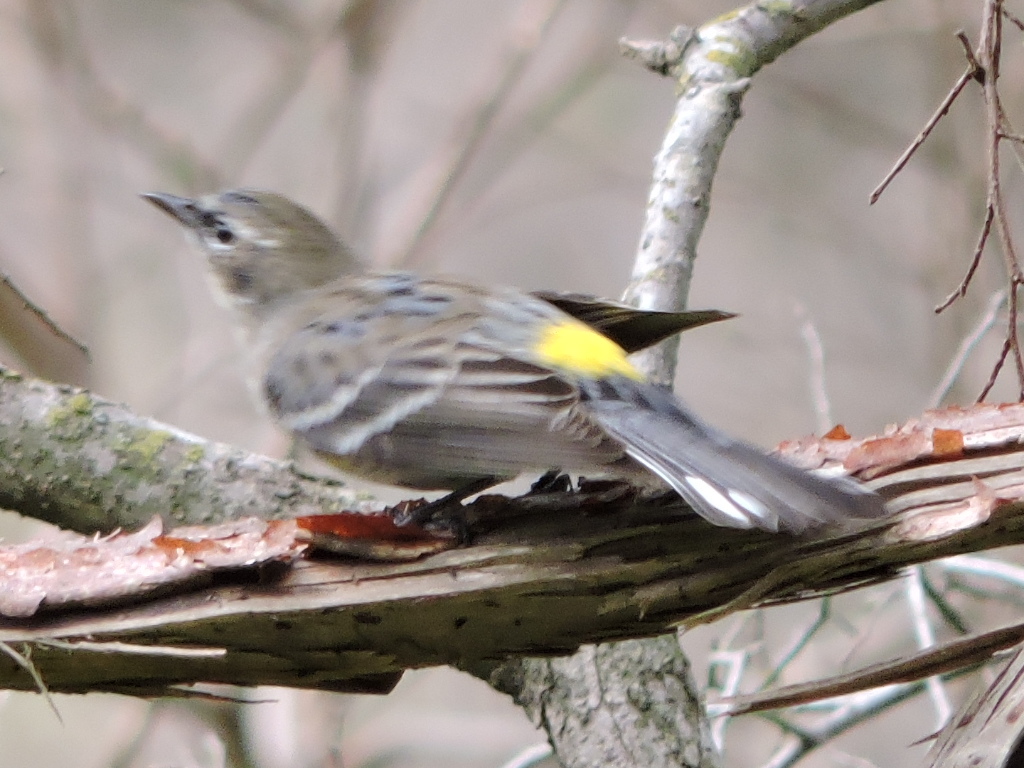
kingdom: Animalia
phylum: Chordata
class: Aves
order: Passeriformes
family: Parulidae
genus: Setophaga
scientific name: Setophaga coronata
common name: Myrtle warbler
